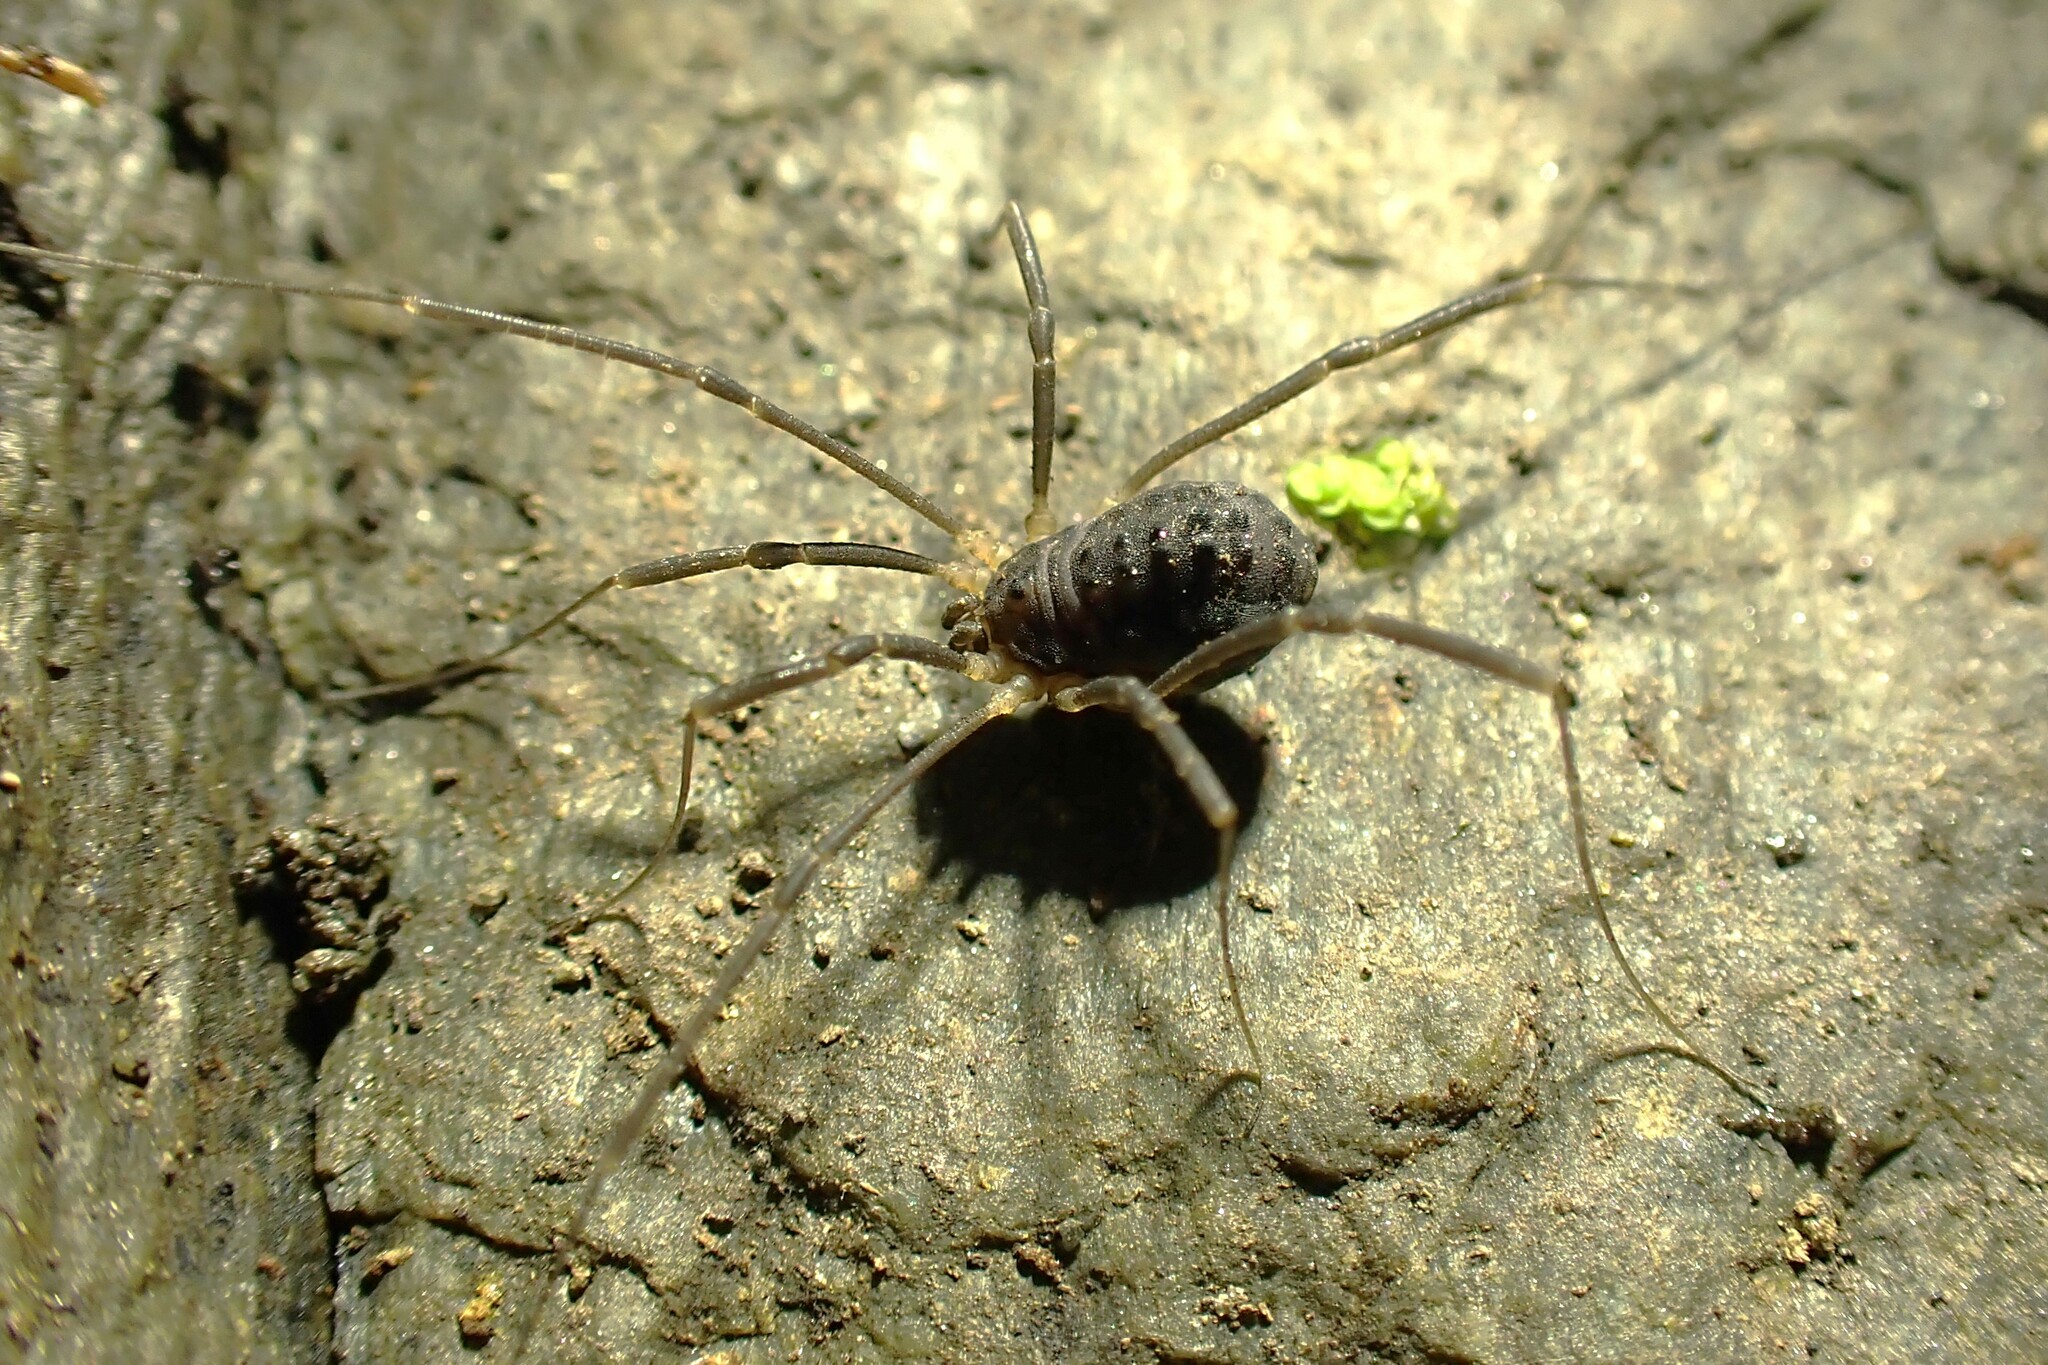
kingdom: Animalia
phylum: Arthropoda
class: Arachnida
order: Opiliones
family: Sclerosomatidae
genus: Astrobunus
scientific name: Astrobunus grallator
